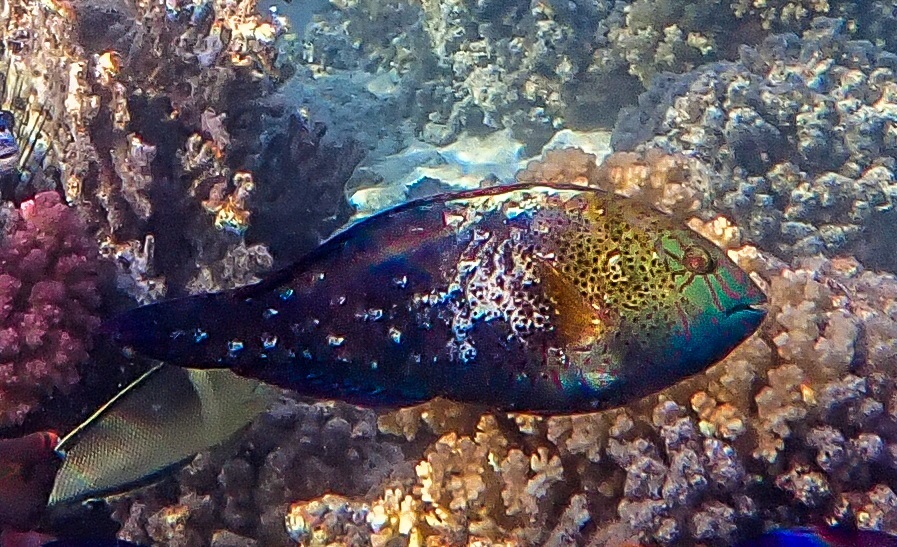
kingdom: Animalia
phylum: Chordata
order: Perciformes
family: Scaridae
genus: Calotomus
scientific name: Calotomus viridescens
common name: Dotted parrotfish
